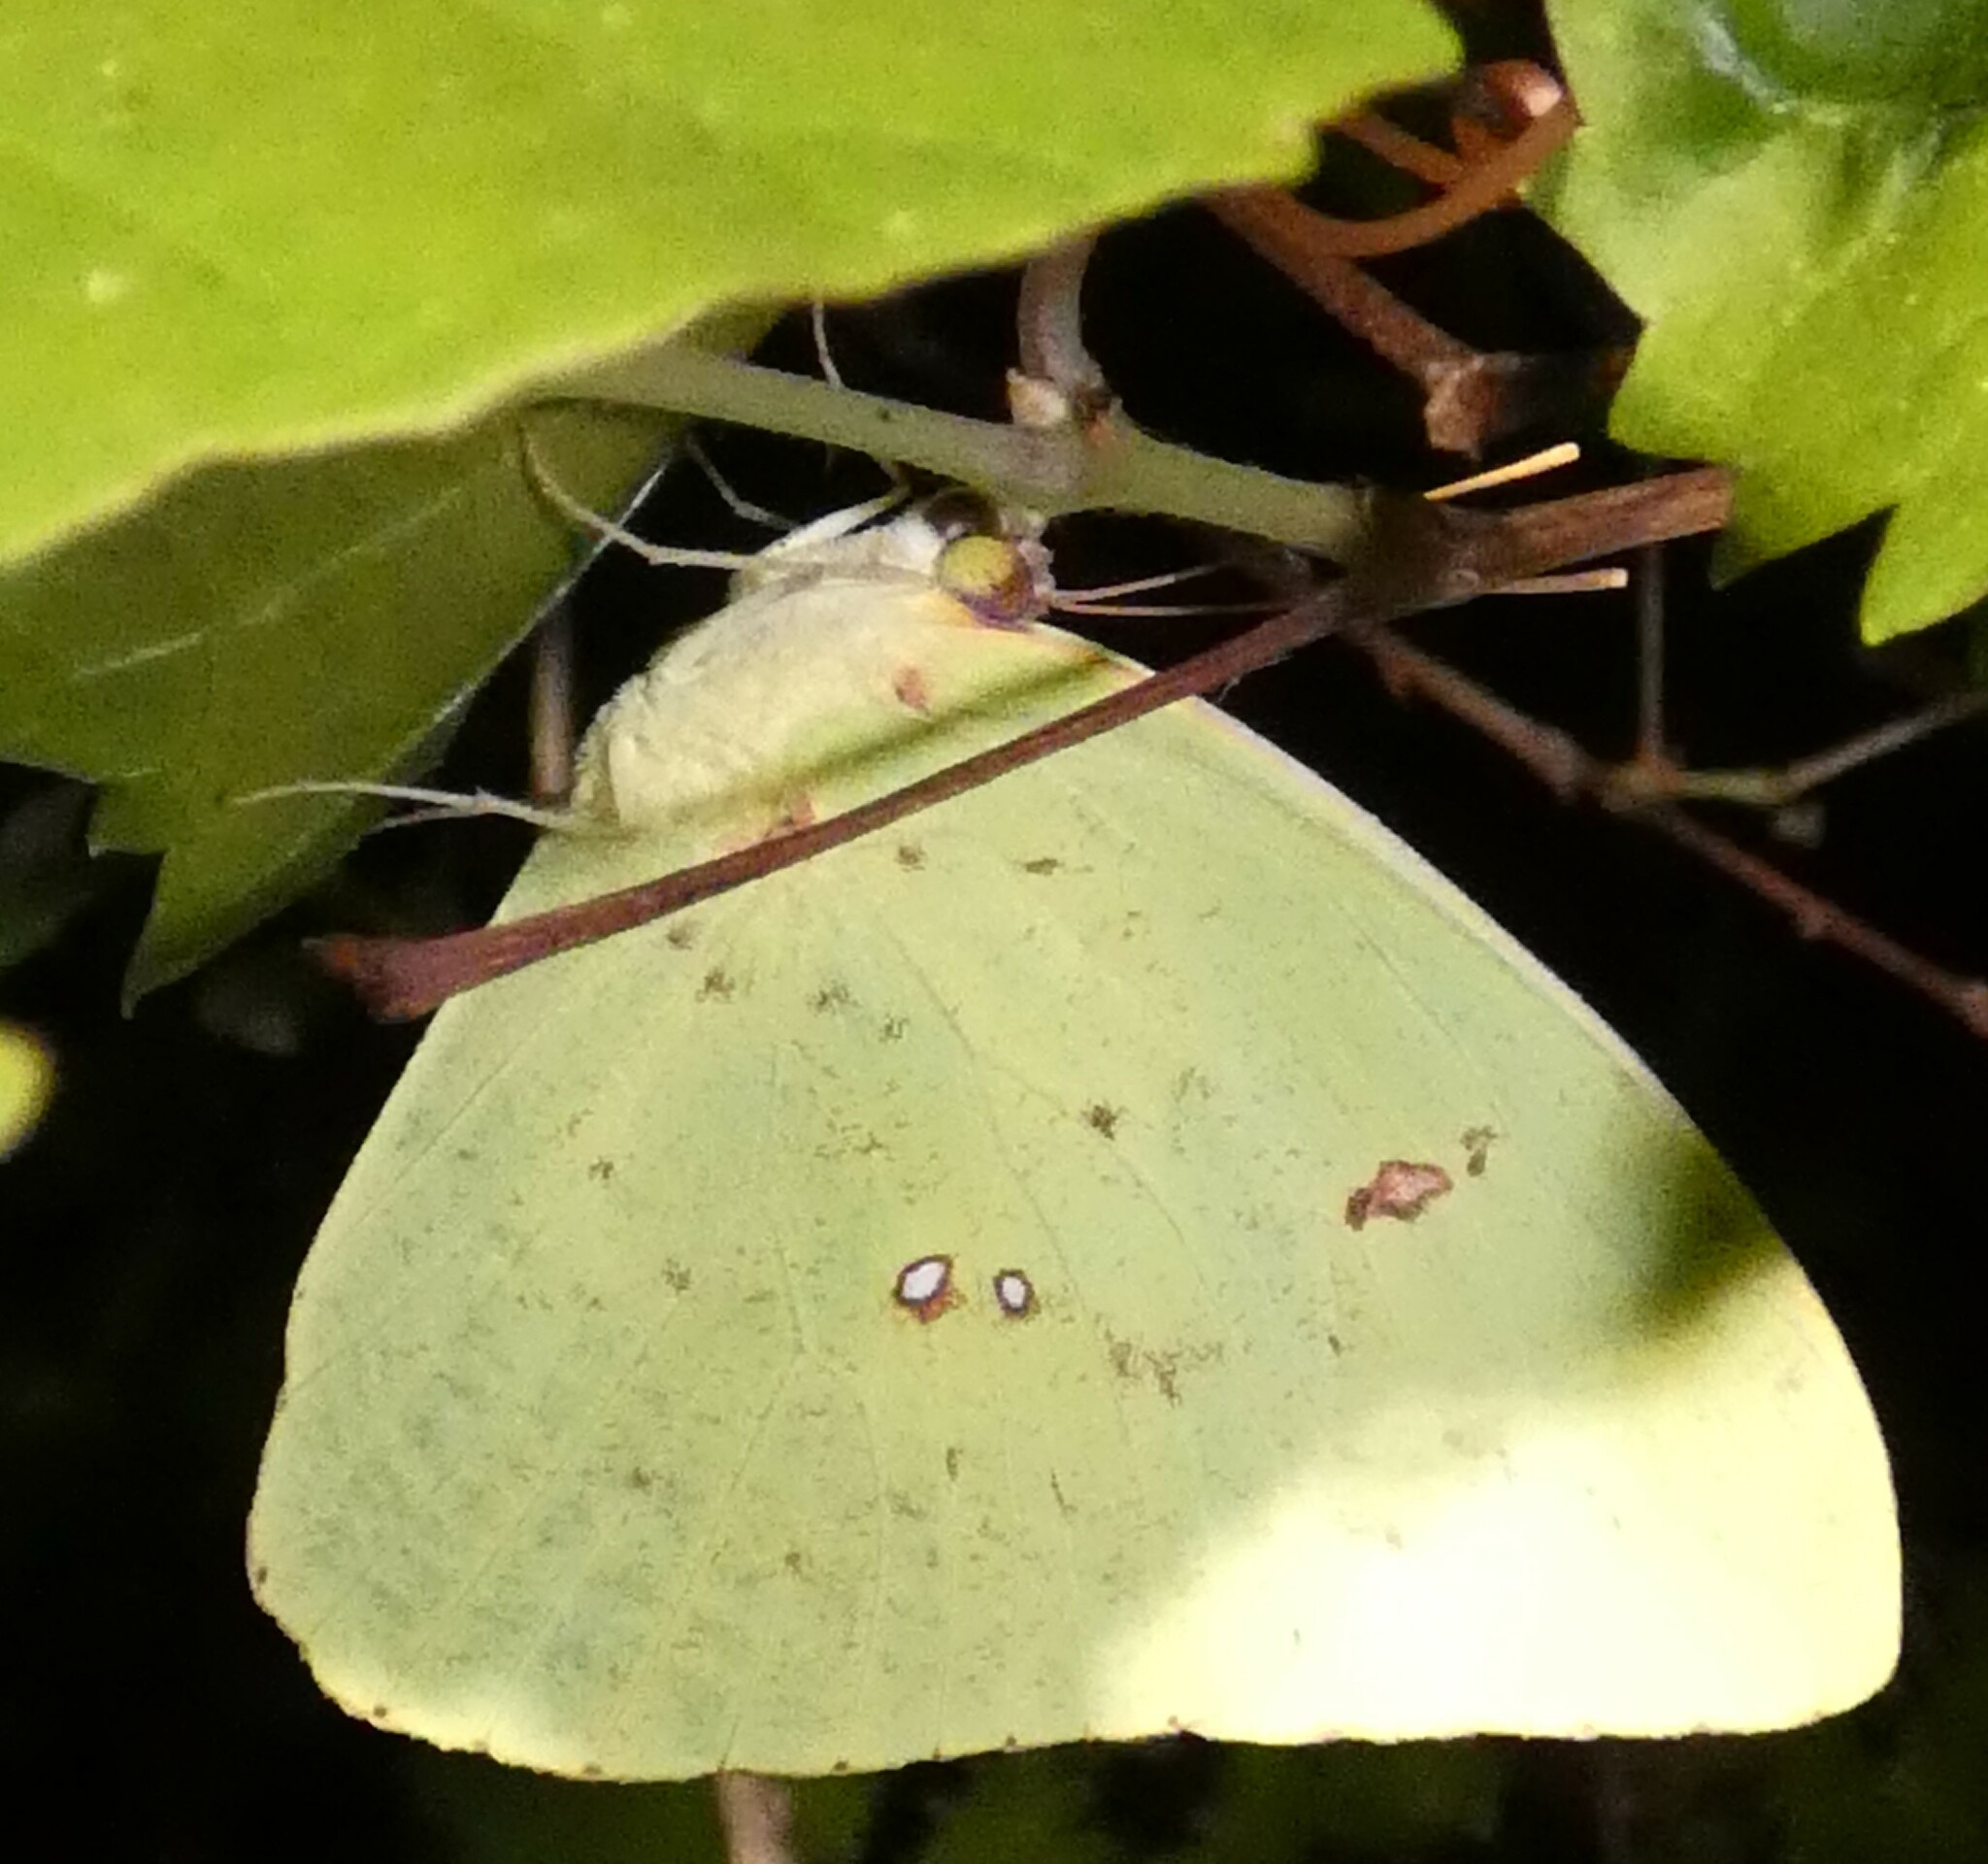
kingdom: Animalia
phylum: Arthropoda
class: Insecta
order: Lepidoptera
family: Pieridae
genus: Phoebis
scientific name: Phoebis sennae
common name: Cloudless sulphur
